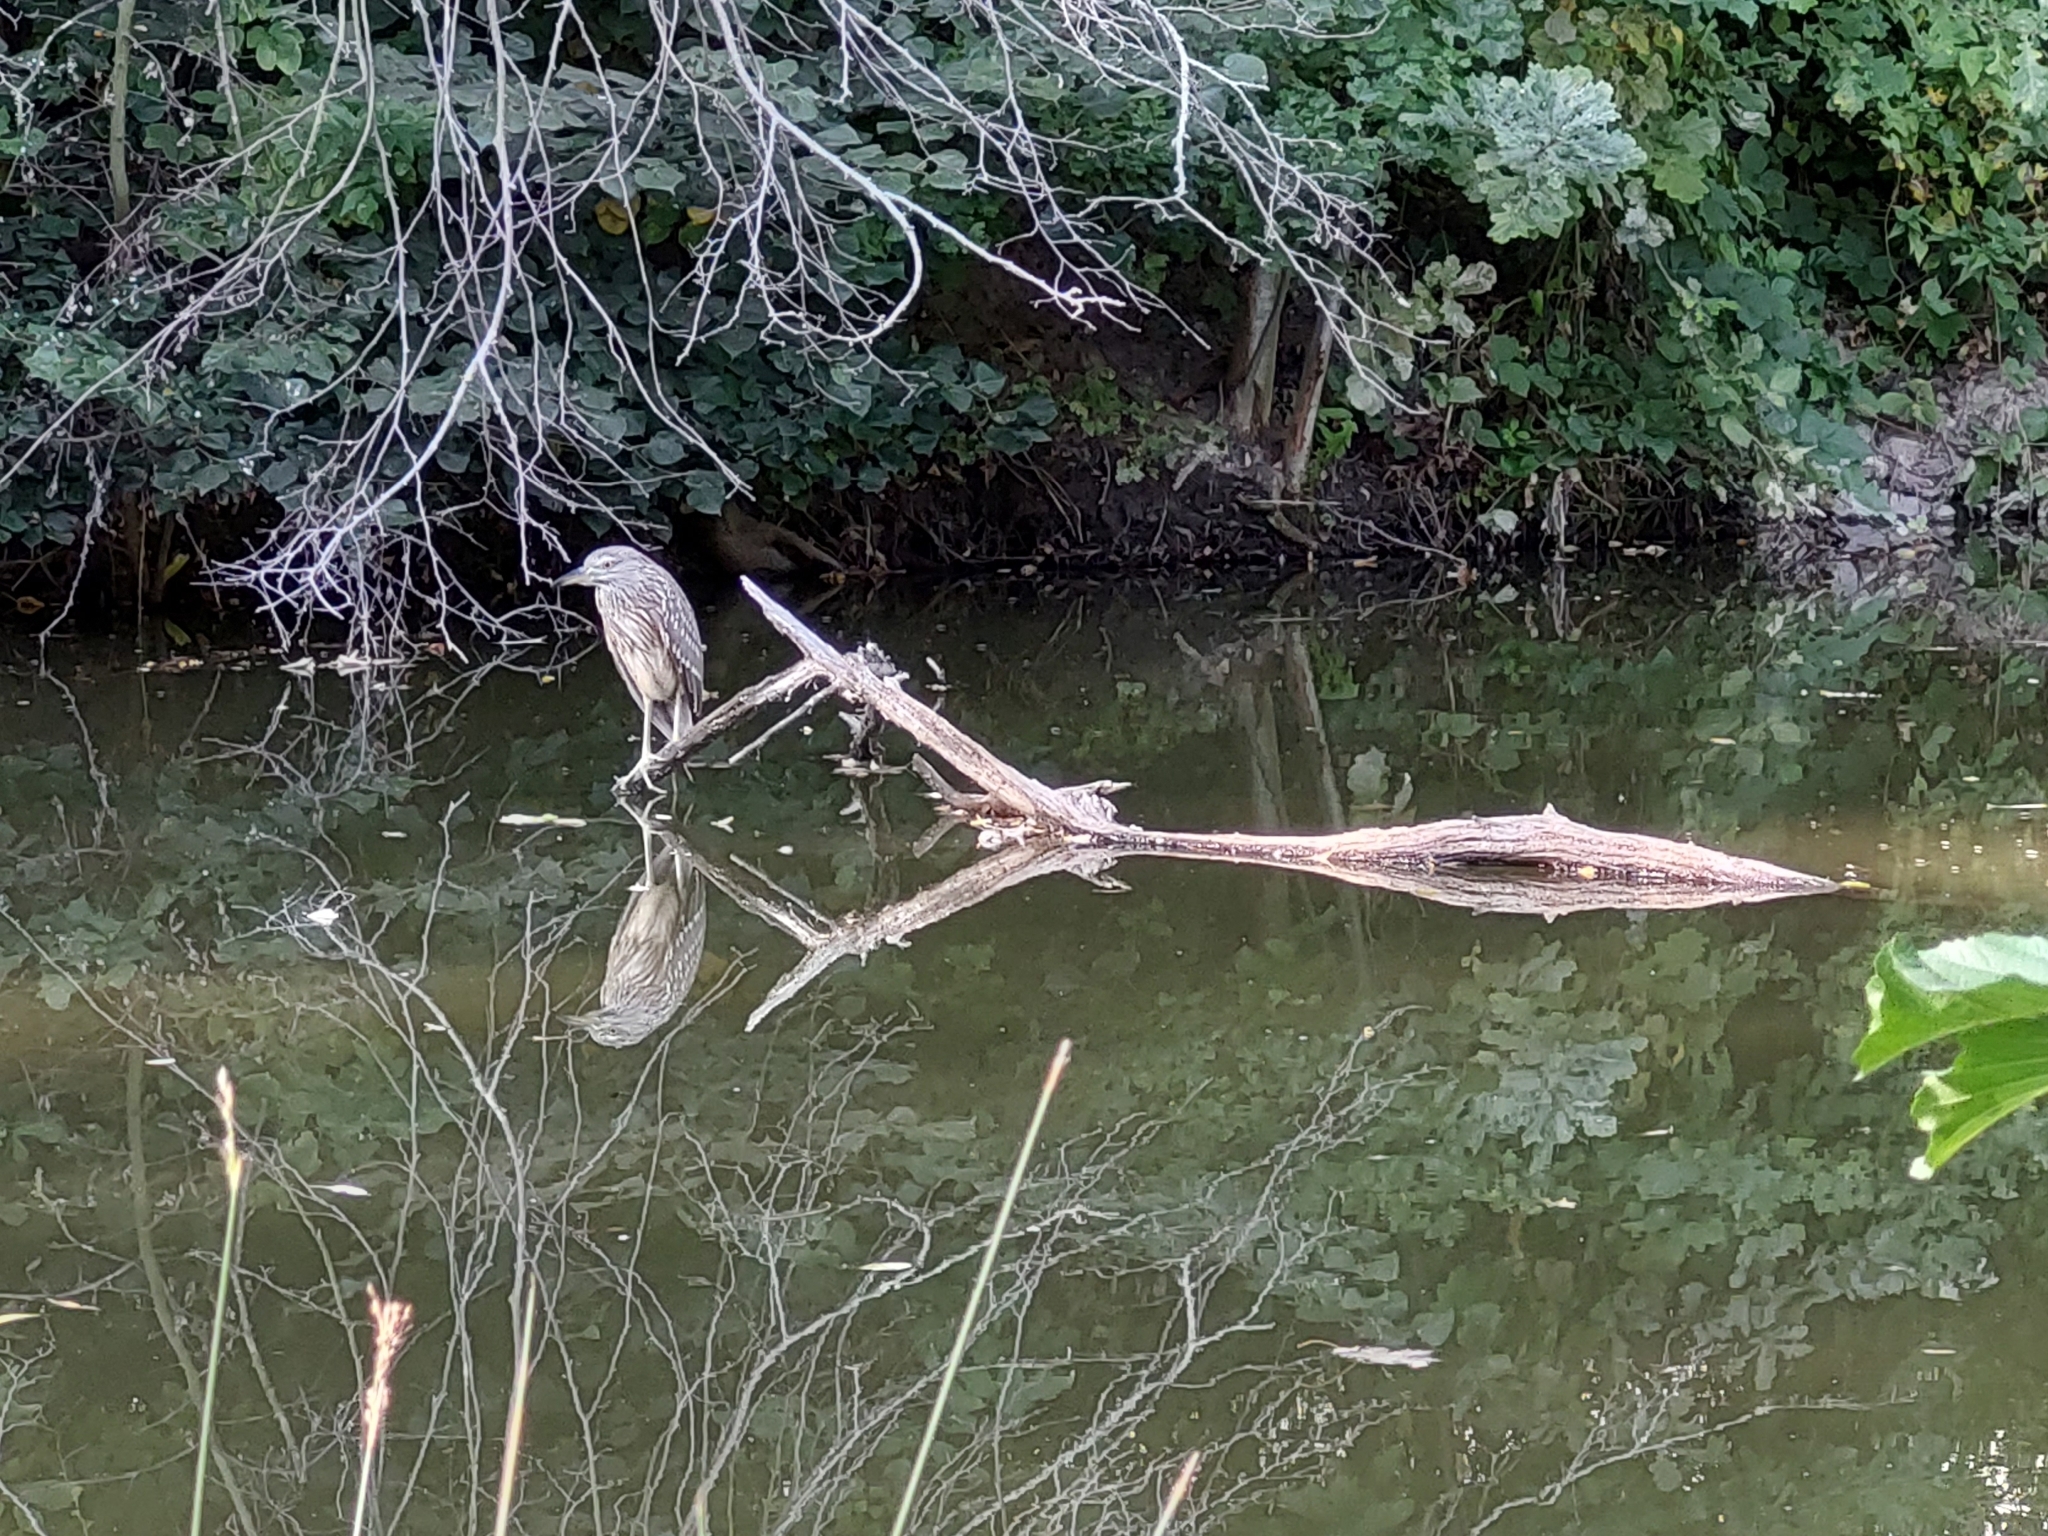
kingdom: Animalia
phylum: Chordata
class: Aves
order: Pelecaniformes
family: Ardeidae
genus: Nycticorax
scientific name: Nycticorax nycticorax
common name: Black-crowned night heron
